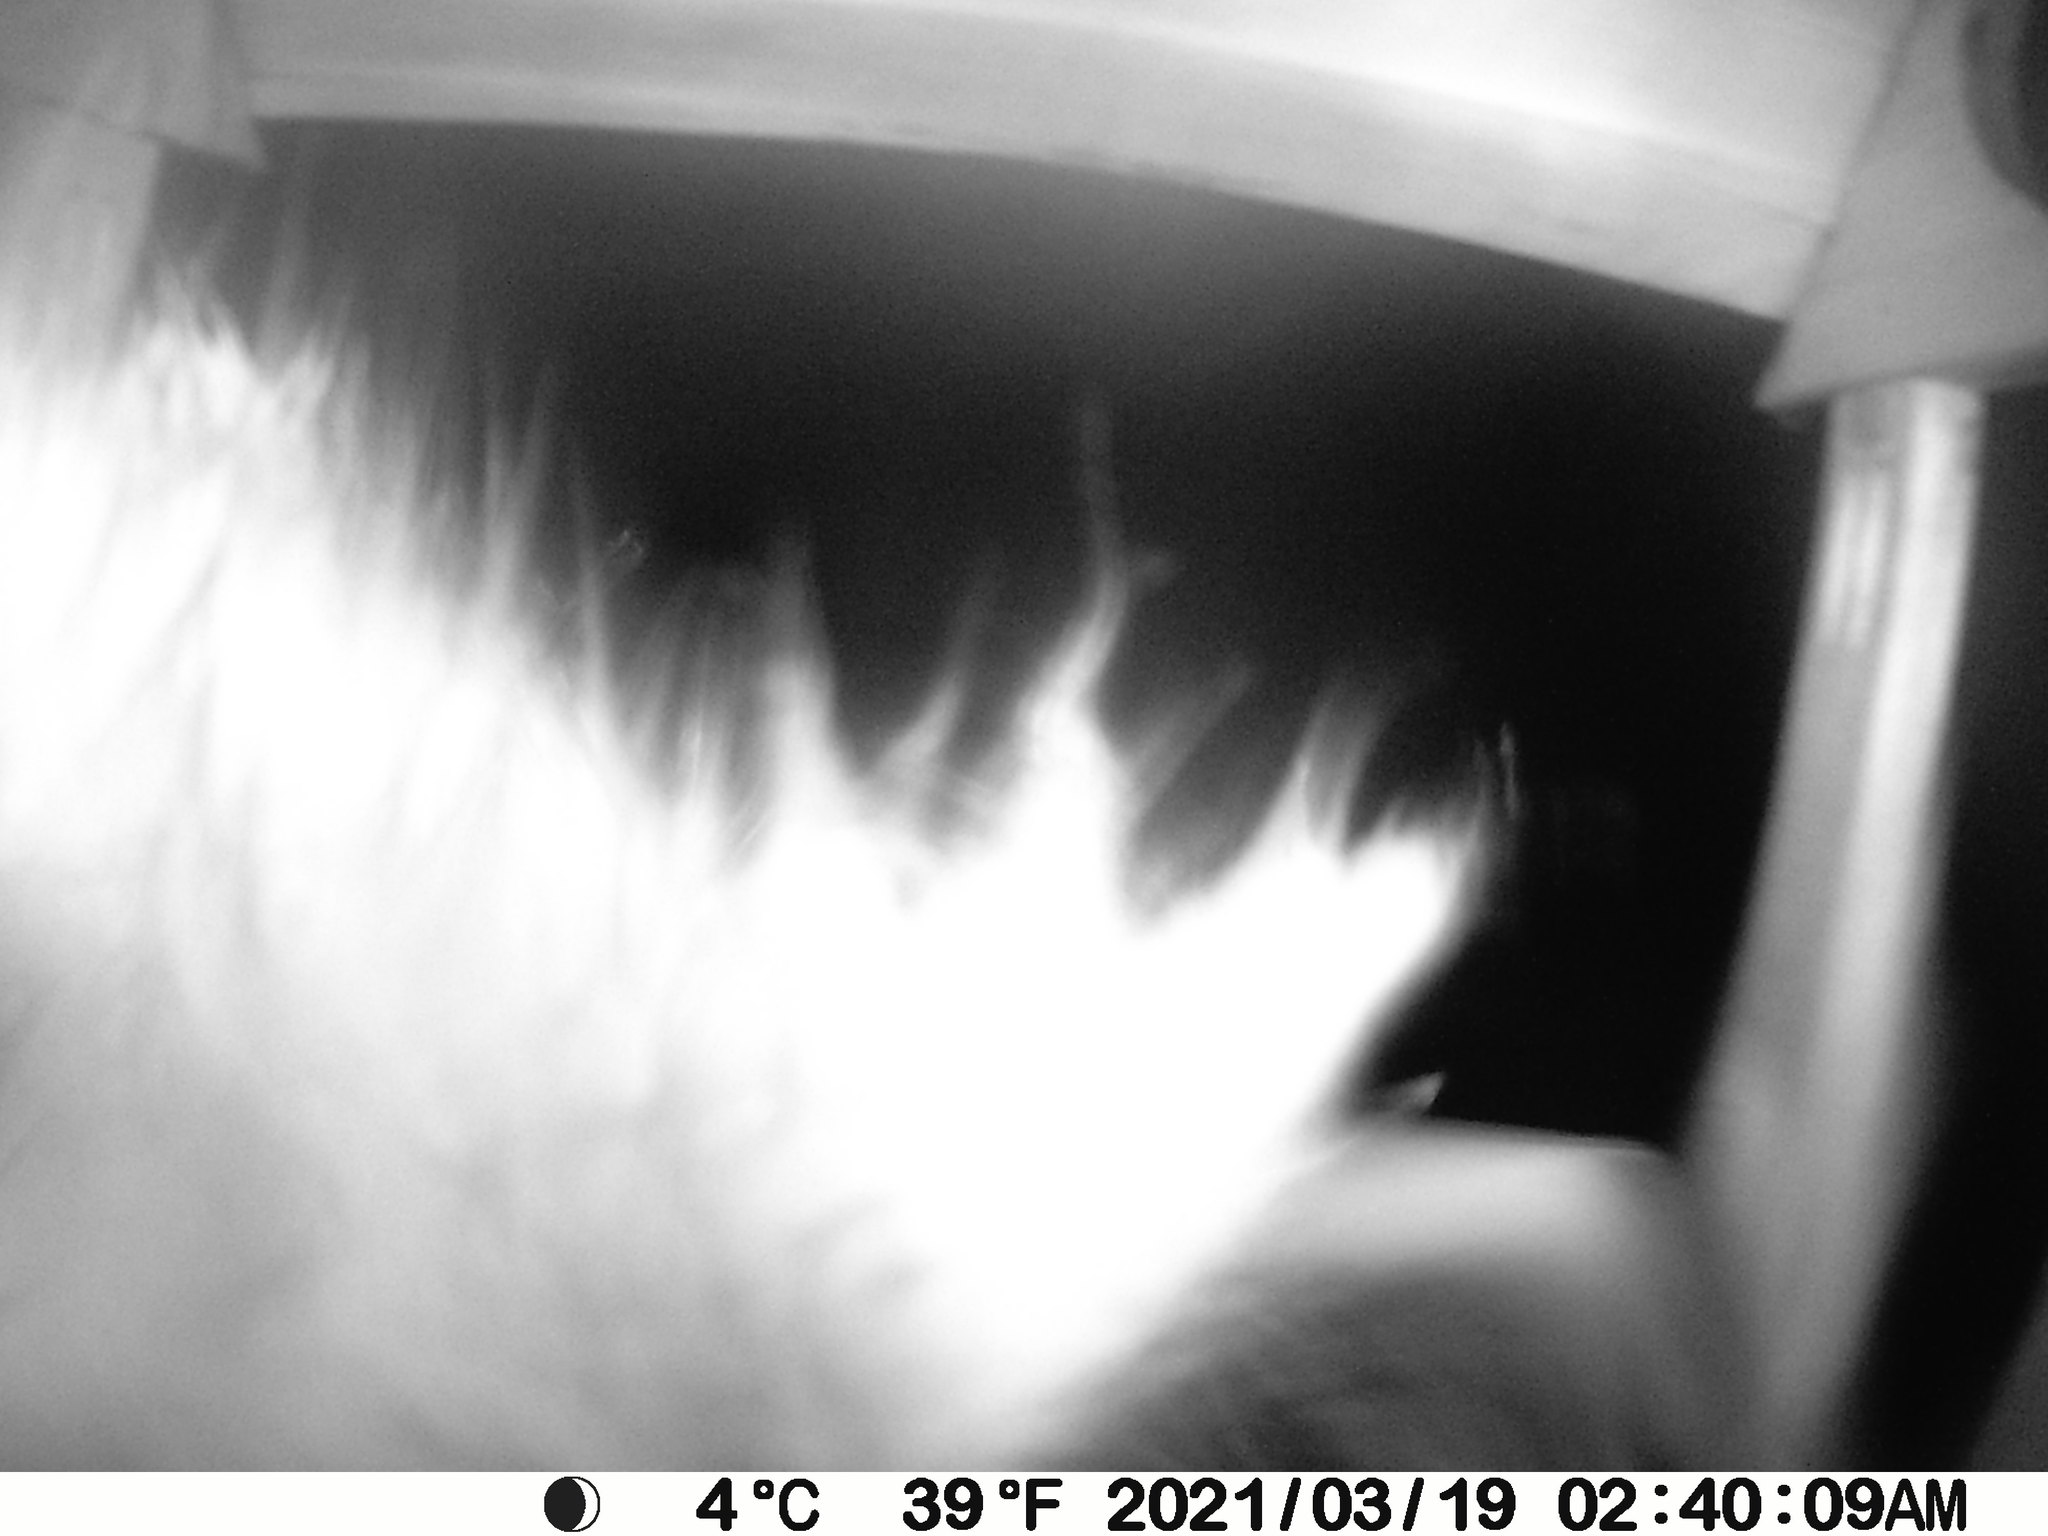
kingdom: Animalia
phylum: Chordata
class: Mammalia
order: Carnivora
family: Procyonidae
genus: Procyon
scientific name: Procyon lotor
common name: Raccoon
